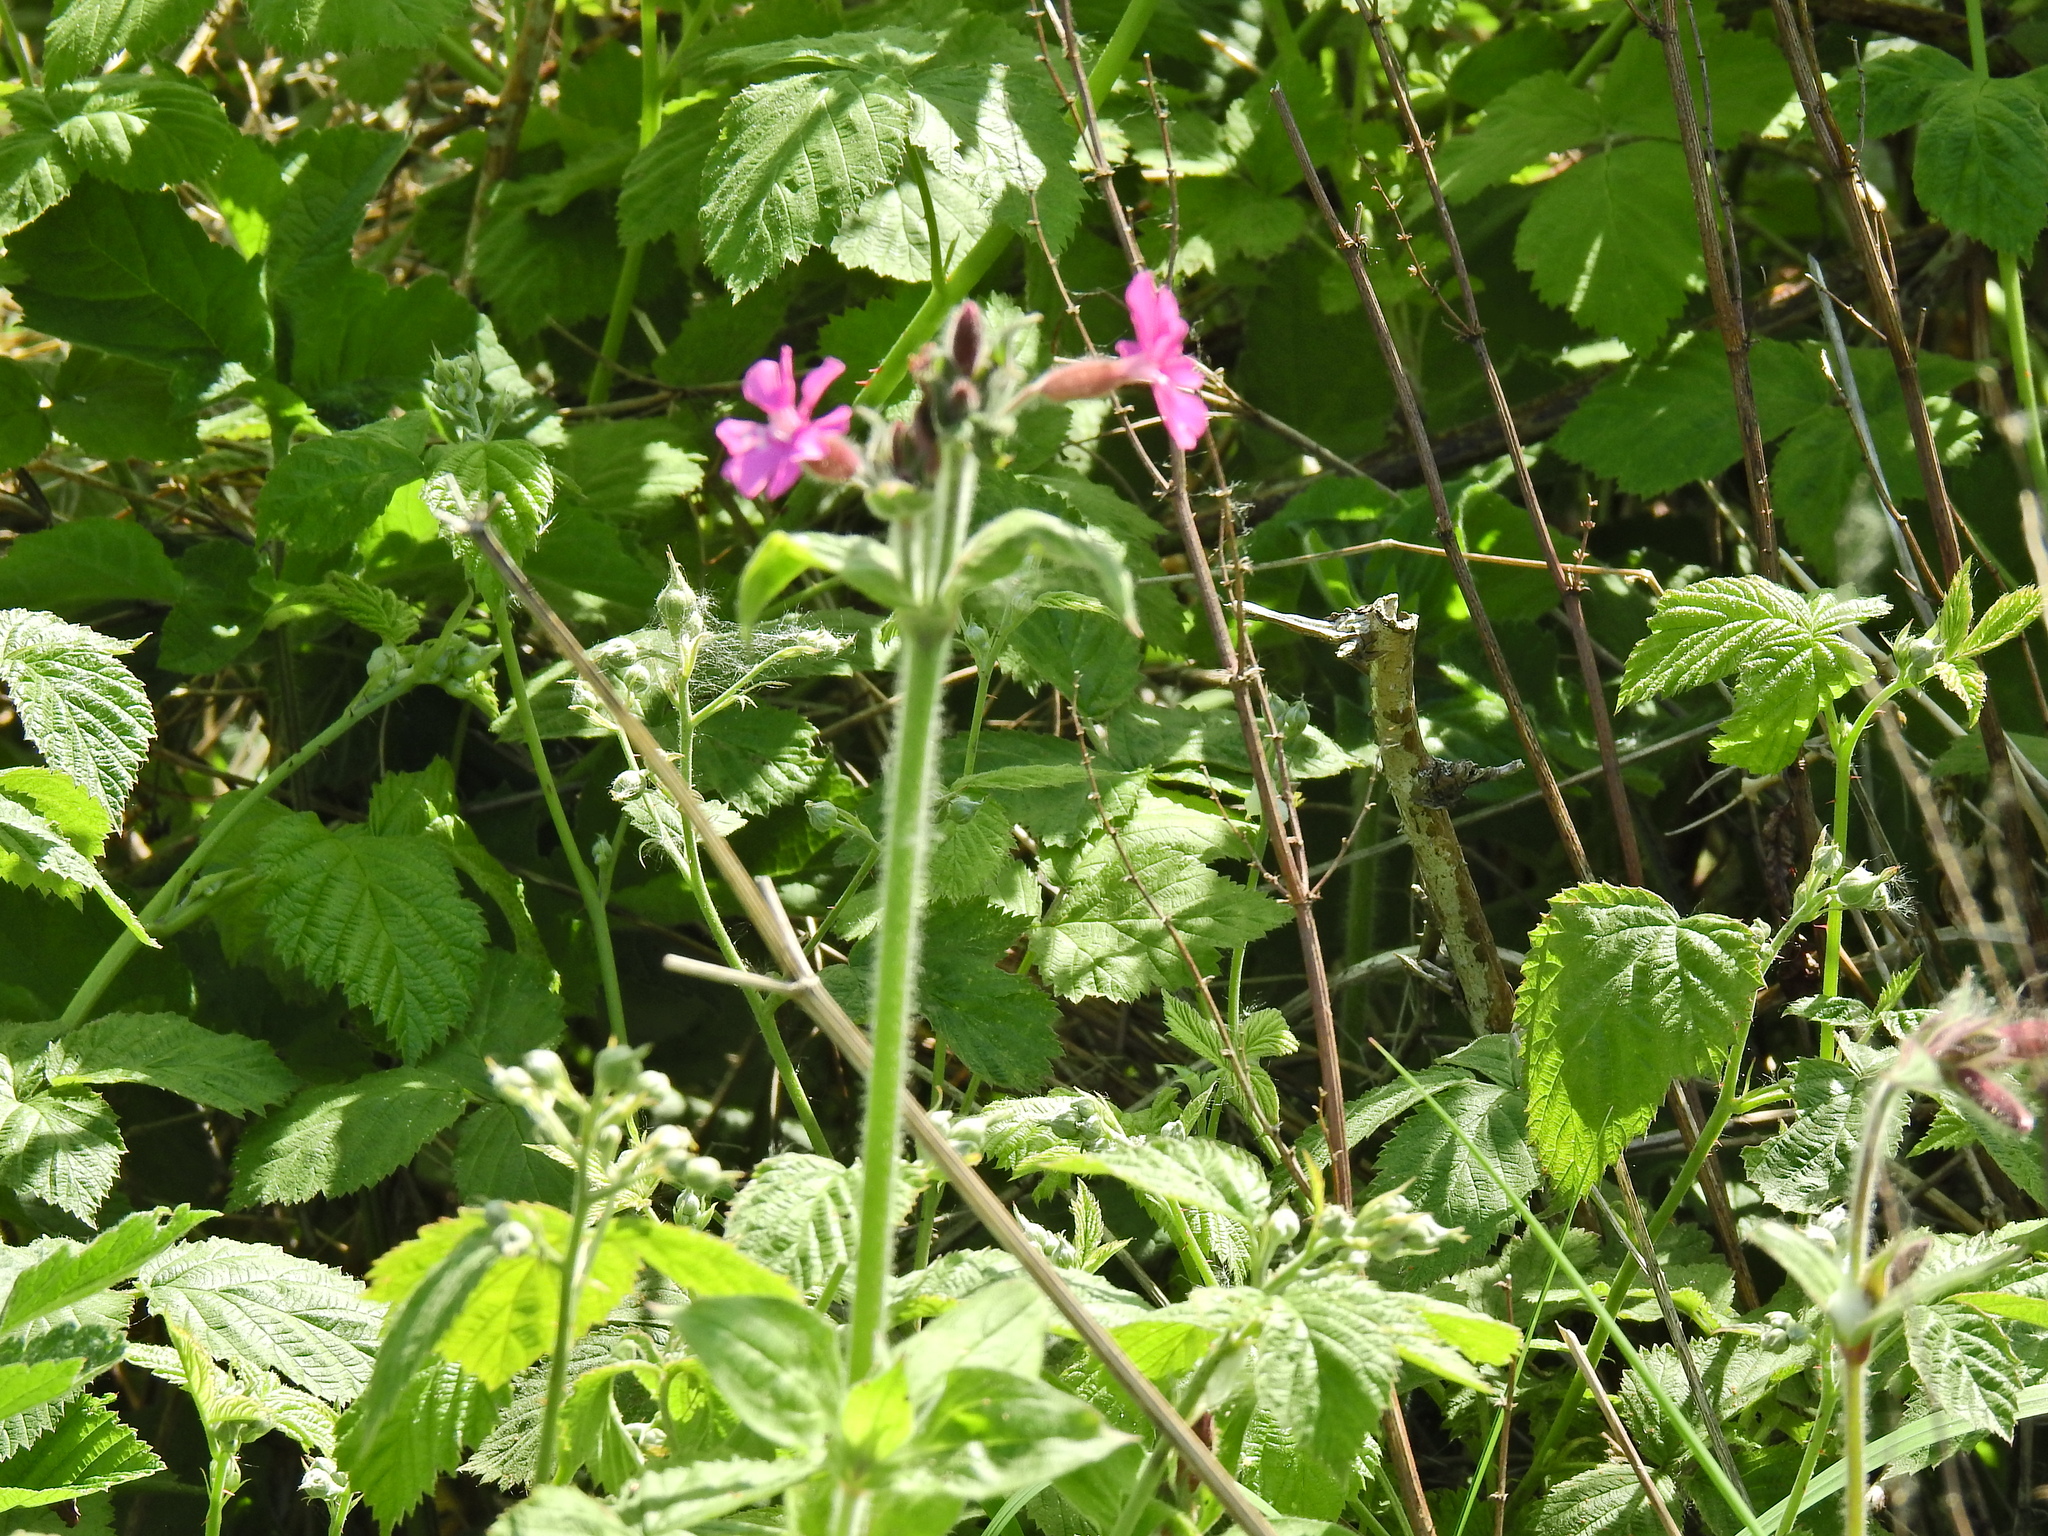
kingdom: Plantae
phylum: Tracheophyta
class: Magnoliopsida
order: Caryophyllales
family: Caryophyllaceae
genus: Silene
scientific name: Silene dioica
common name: Red campion
